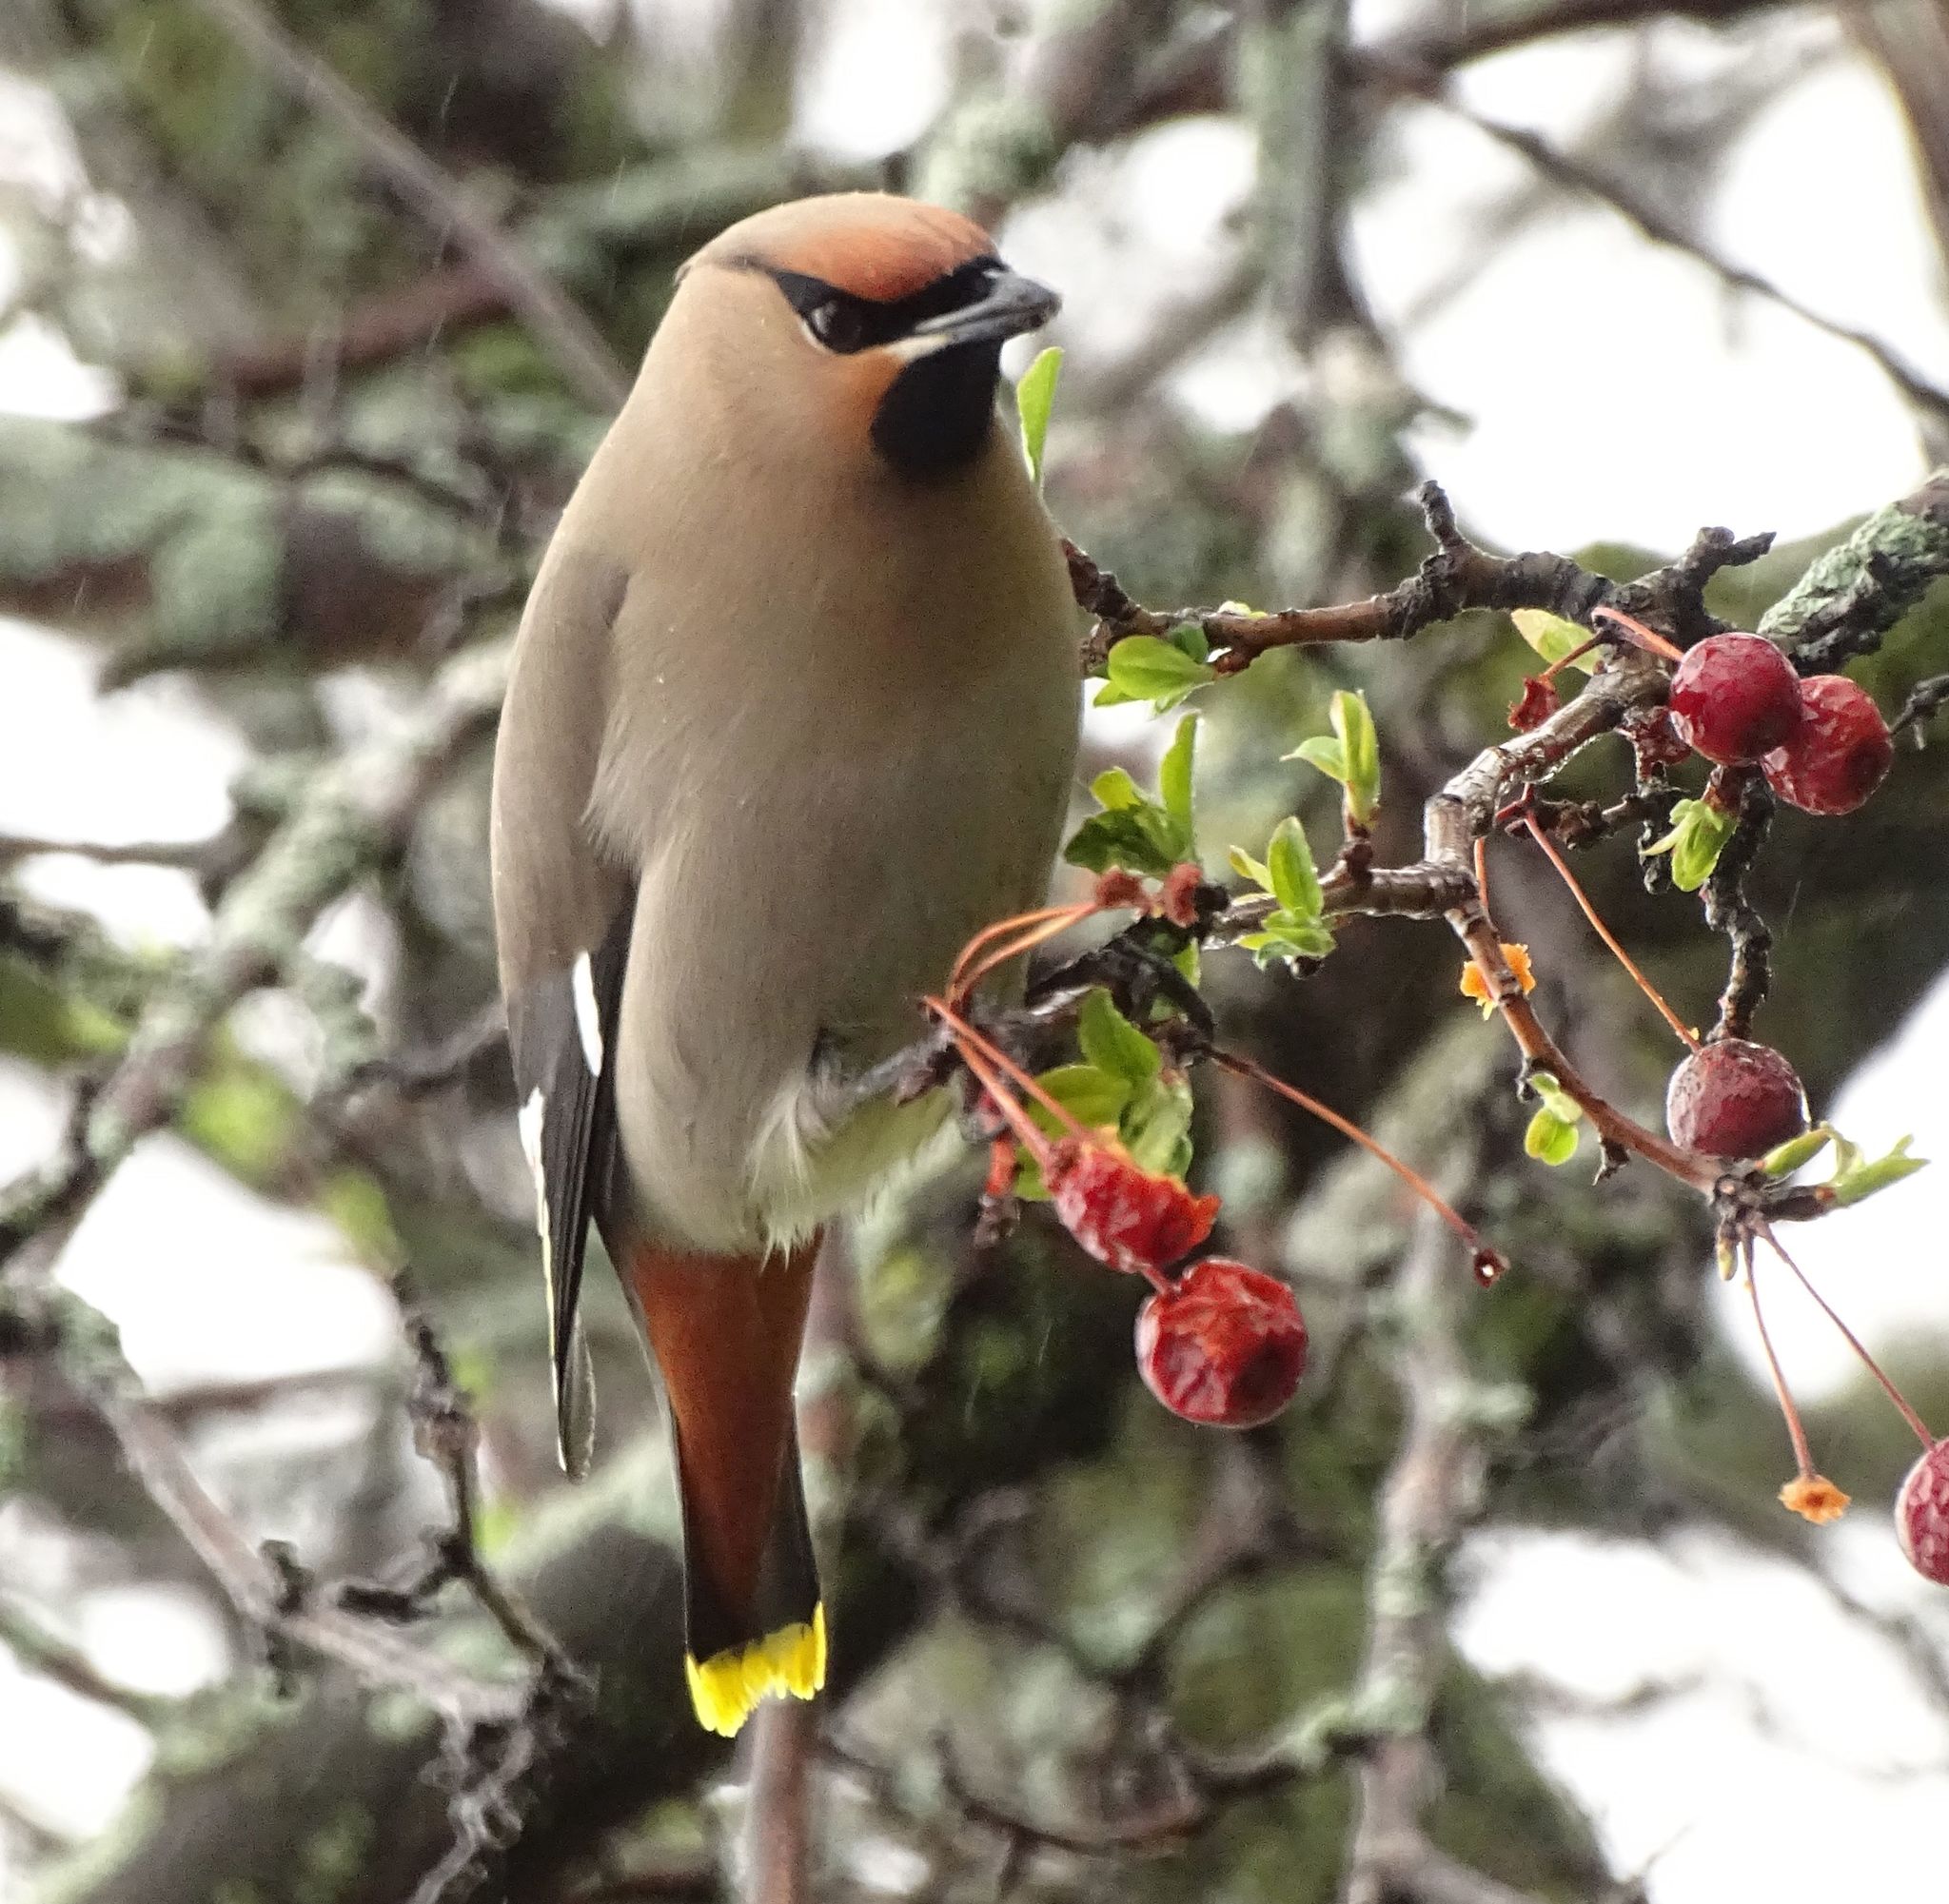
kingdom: Animalia
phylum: Chordata
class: Aves
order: Passeriformes
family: Bombycillidae
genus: Bombycilla
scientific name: Bombycilla garrulus
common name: Bohemian waxwing
